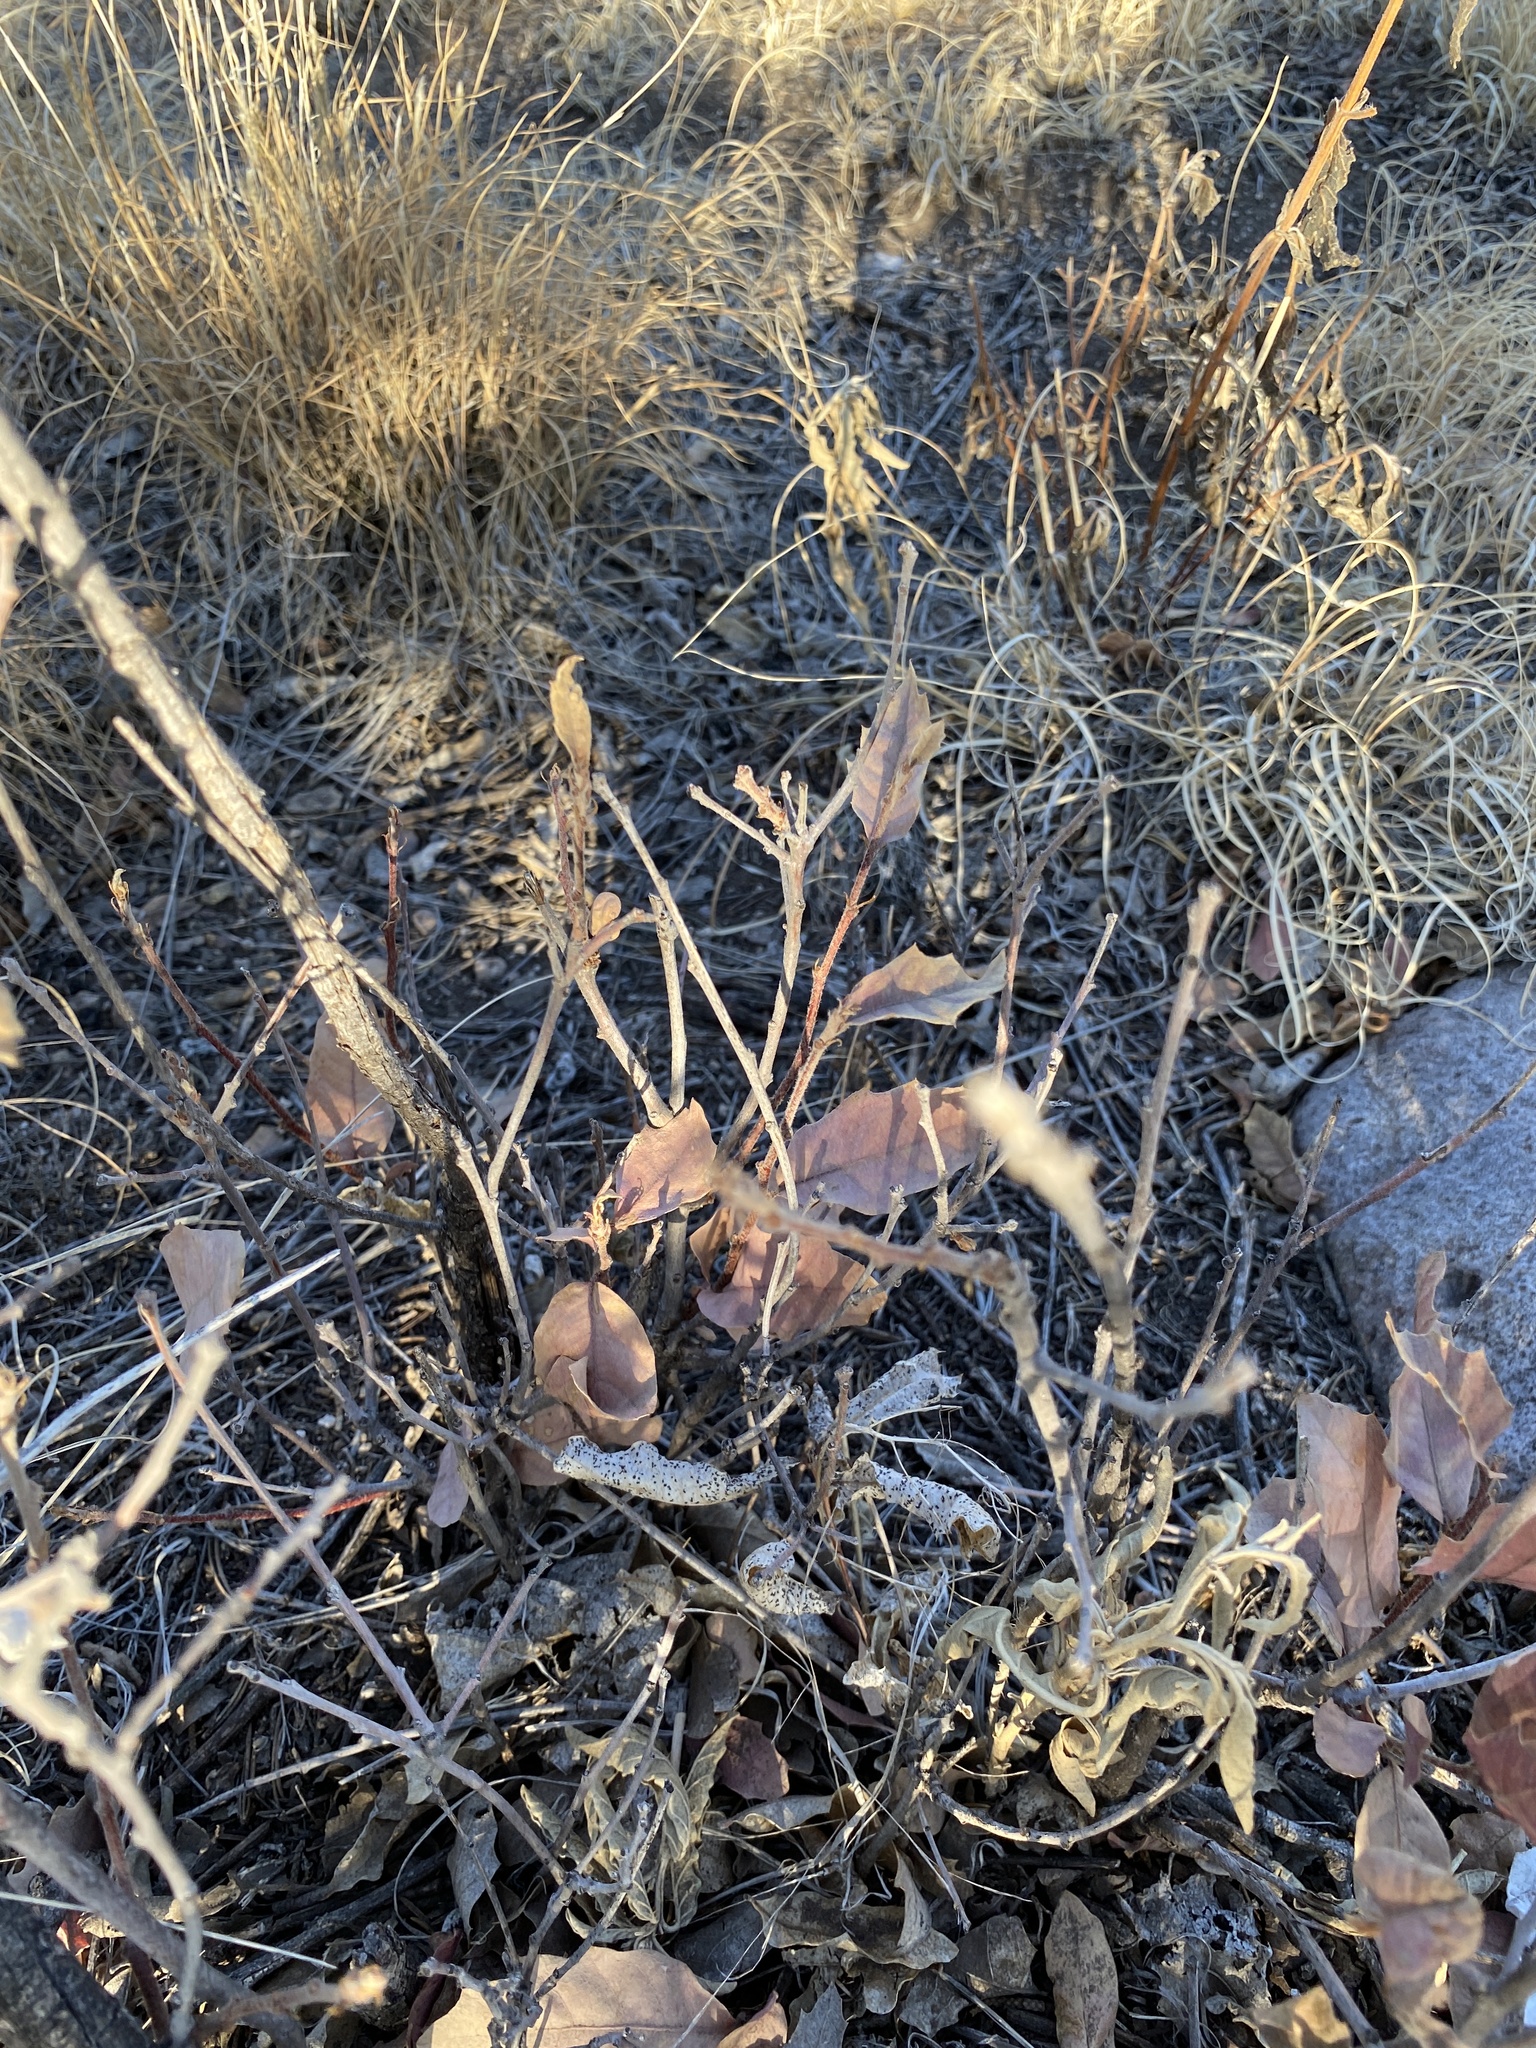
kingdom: Plantae
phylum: Tracheophyta
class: Magnoliopsida
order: Fagales
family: Fagaceae
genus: Quercus
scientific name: Quercus undulata
